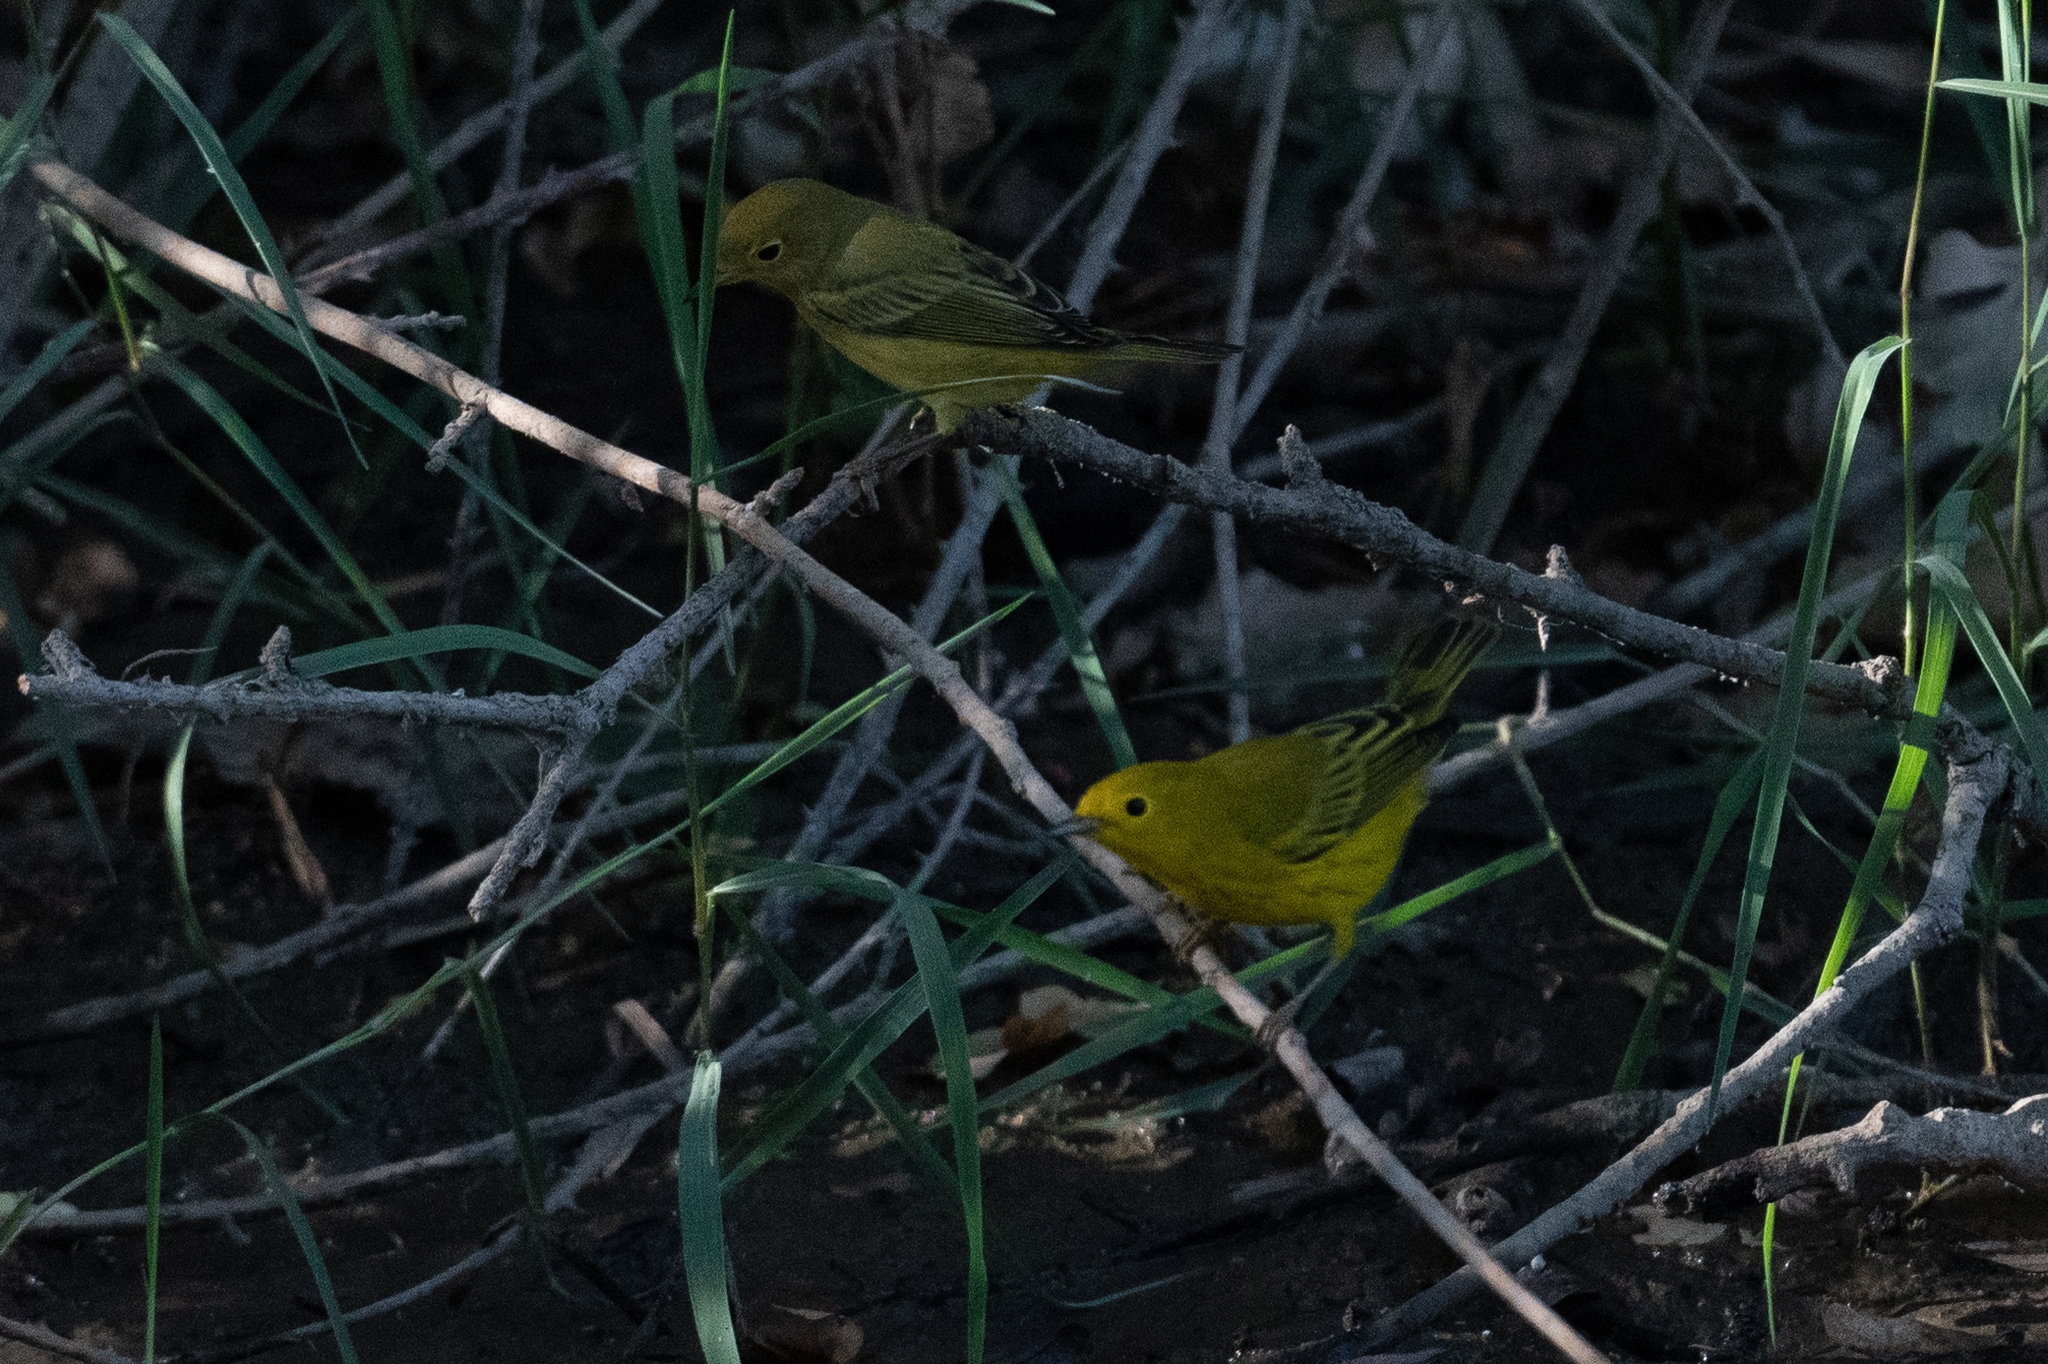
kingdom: Animalia
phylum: Chordata
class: Aves
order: Passeriformes
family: Parulidae
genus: Setophaga
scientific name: Setophaga petechia
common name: Yellow warbler
